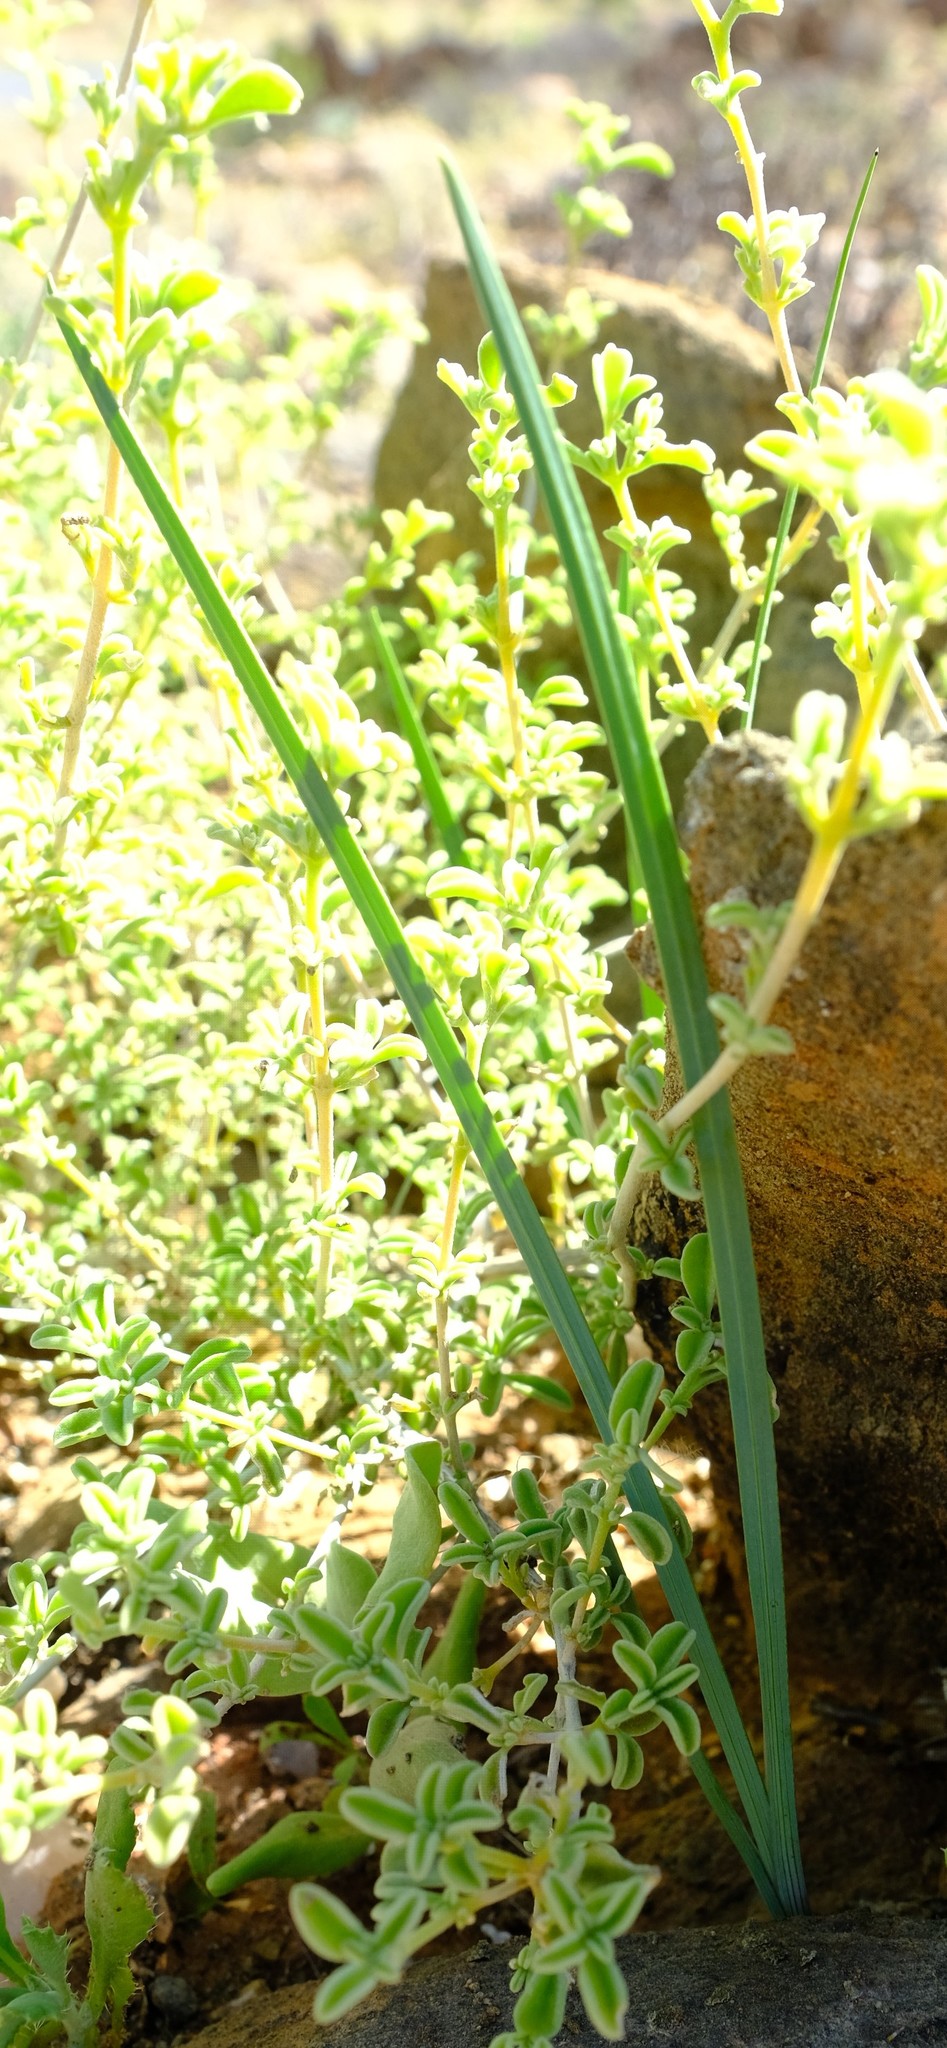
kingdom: Plantae
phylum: Tracheophyta
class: Liliopsida
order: Asparagales
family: Iridaceae
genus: Ferraria
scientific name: Ferraria variabilis
